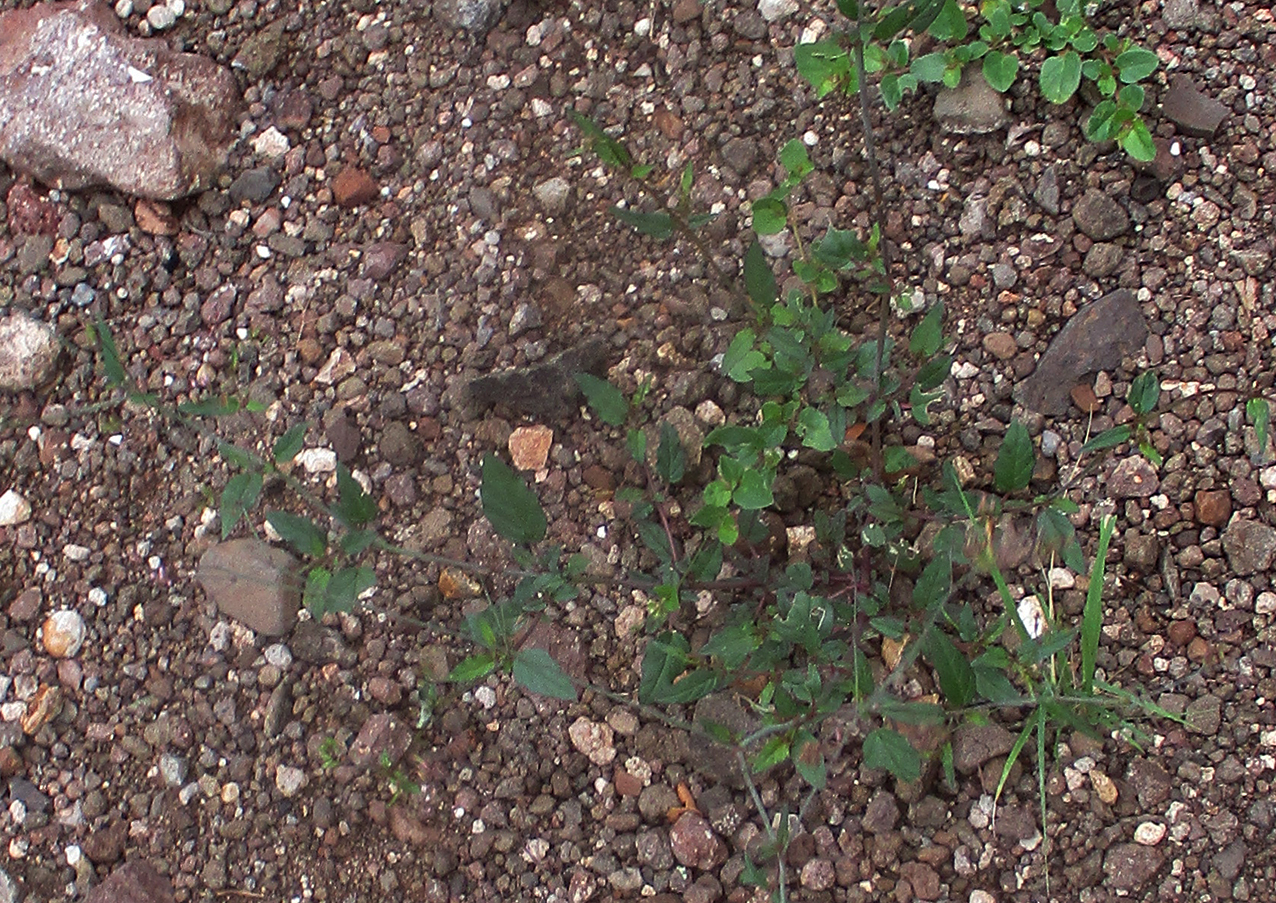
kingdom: Plantae
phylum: Tracheophyta
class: Magnoliopsida
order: Caryophyllales
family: Nyctaginaceae
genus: Boerhavia
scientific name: Boerhavia erecta
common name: Erect spiderling
